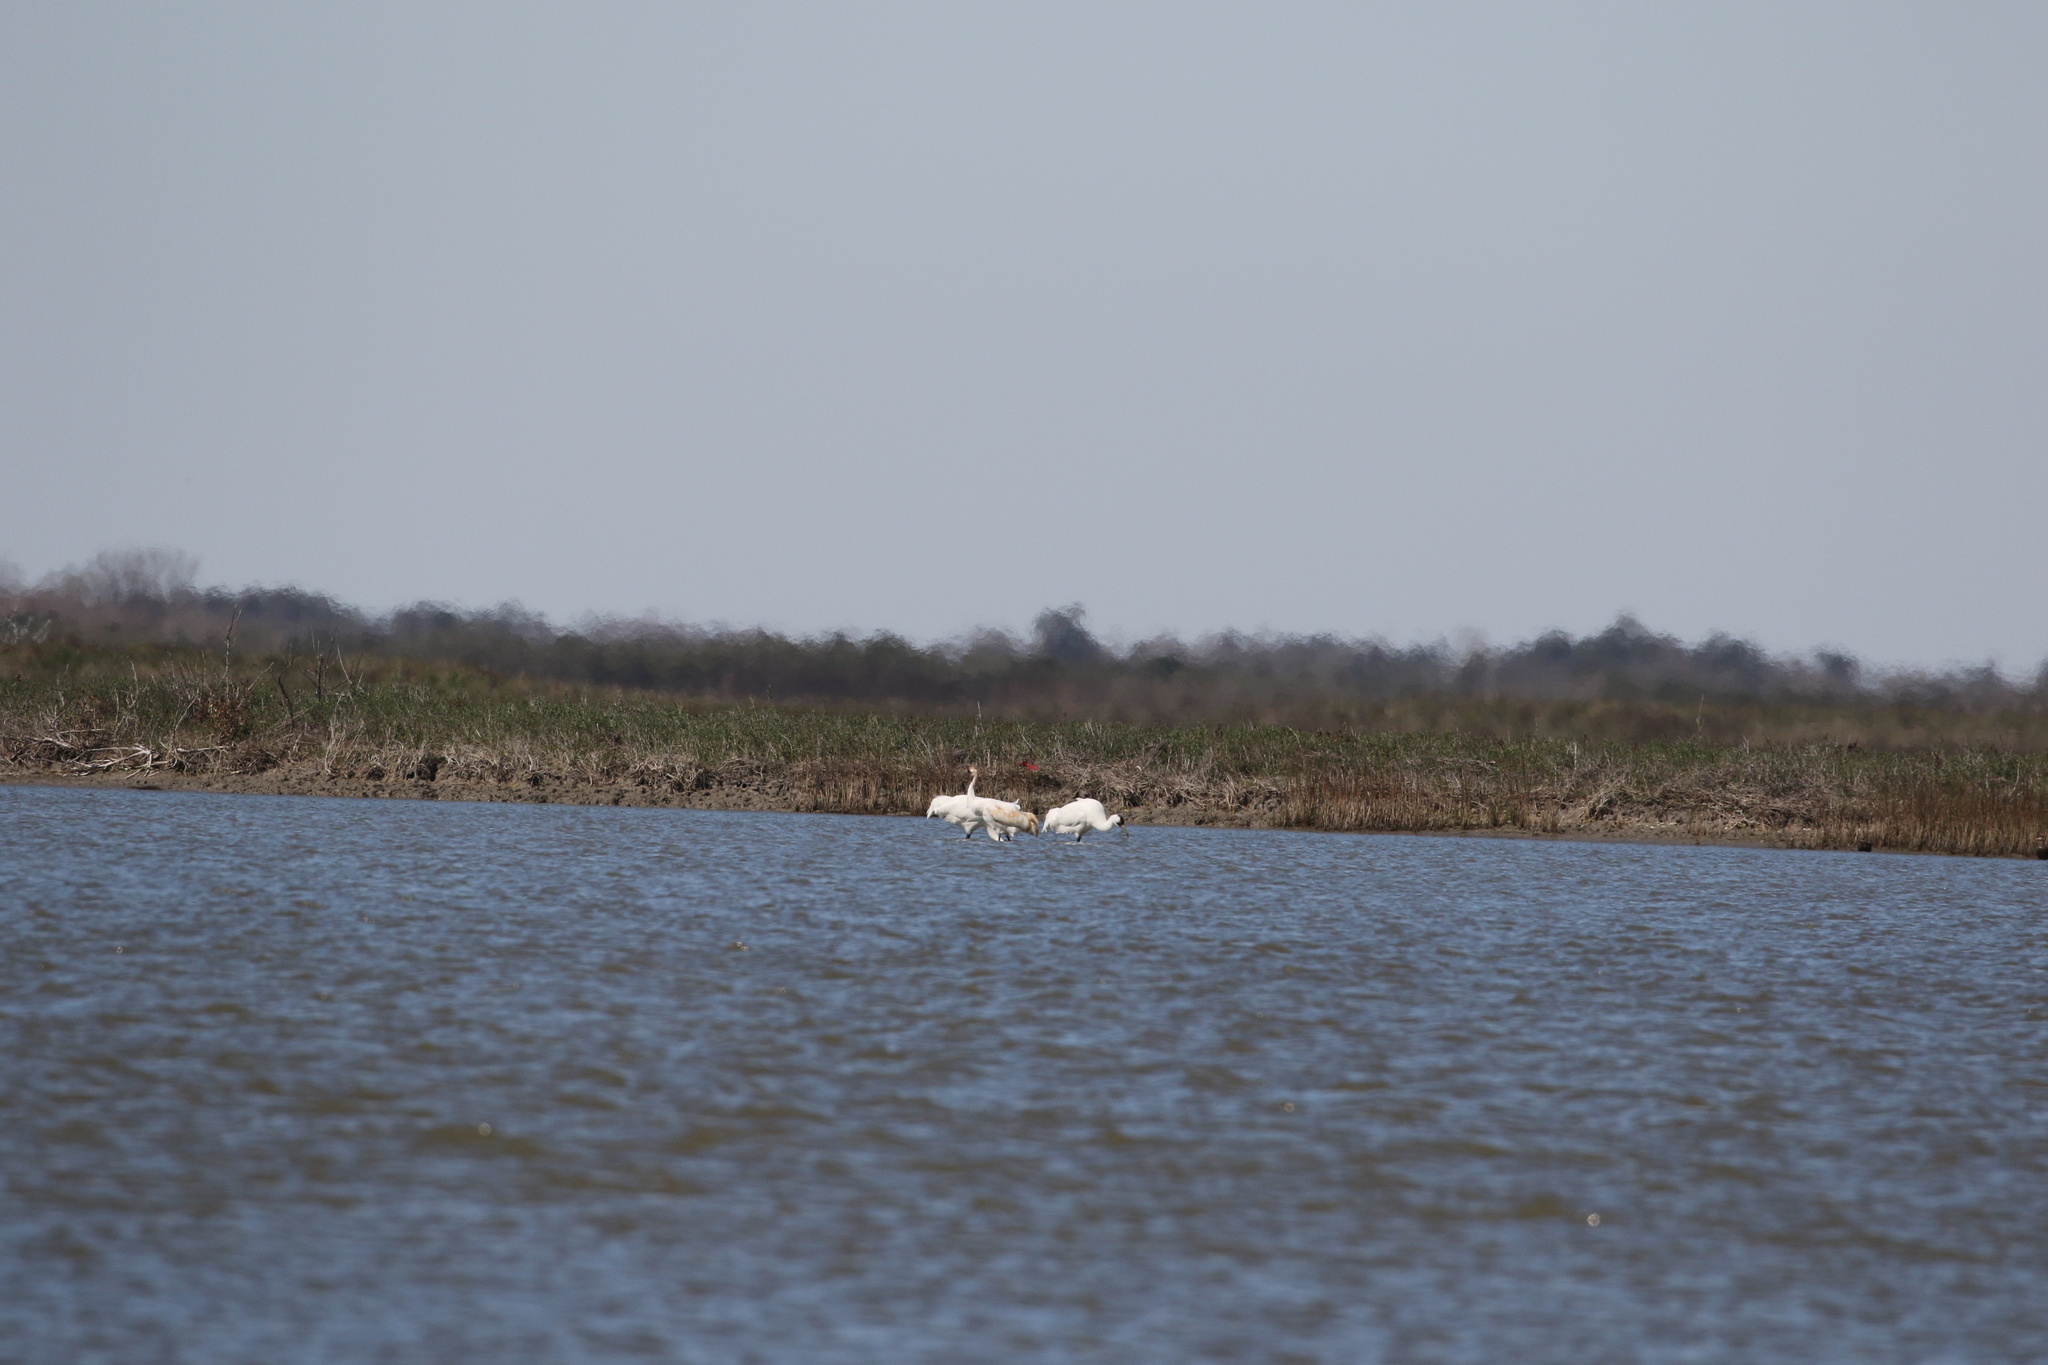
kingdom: Animalia
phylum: Chordata
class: Aves
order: Gruiformes
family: Gruidae
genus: Grus
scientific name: Grus americana
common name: Whooping crane
